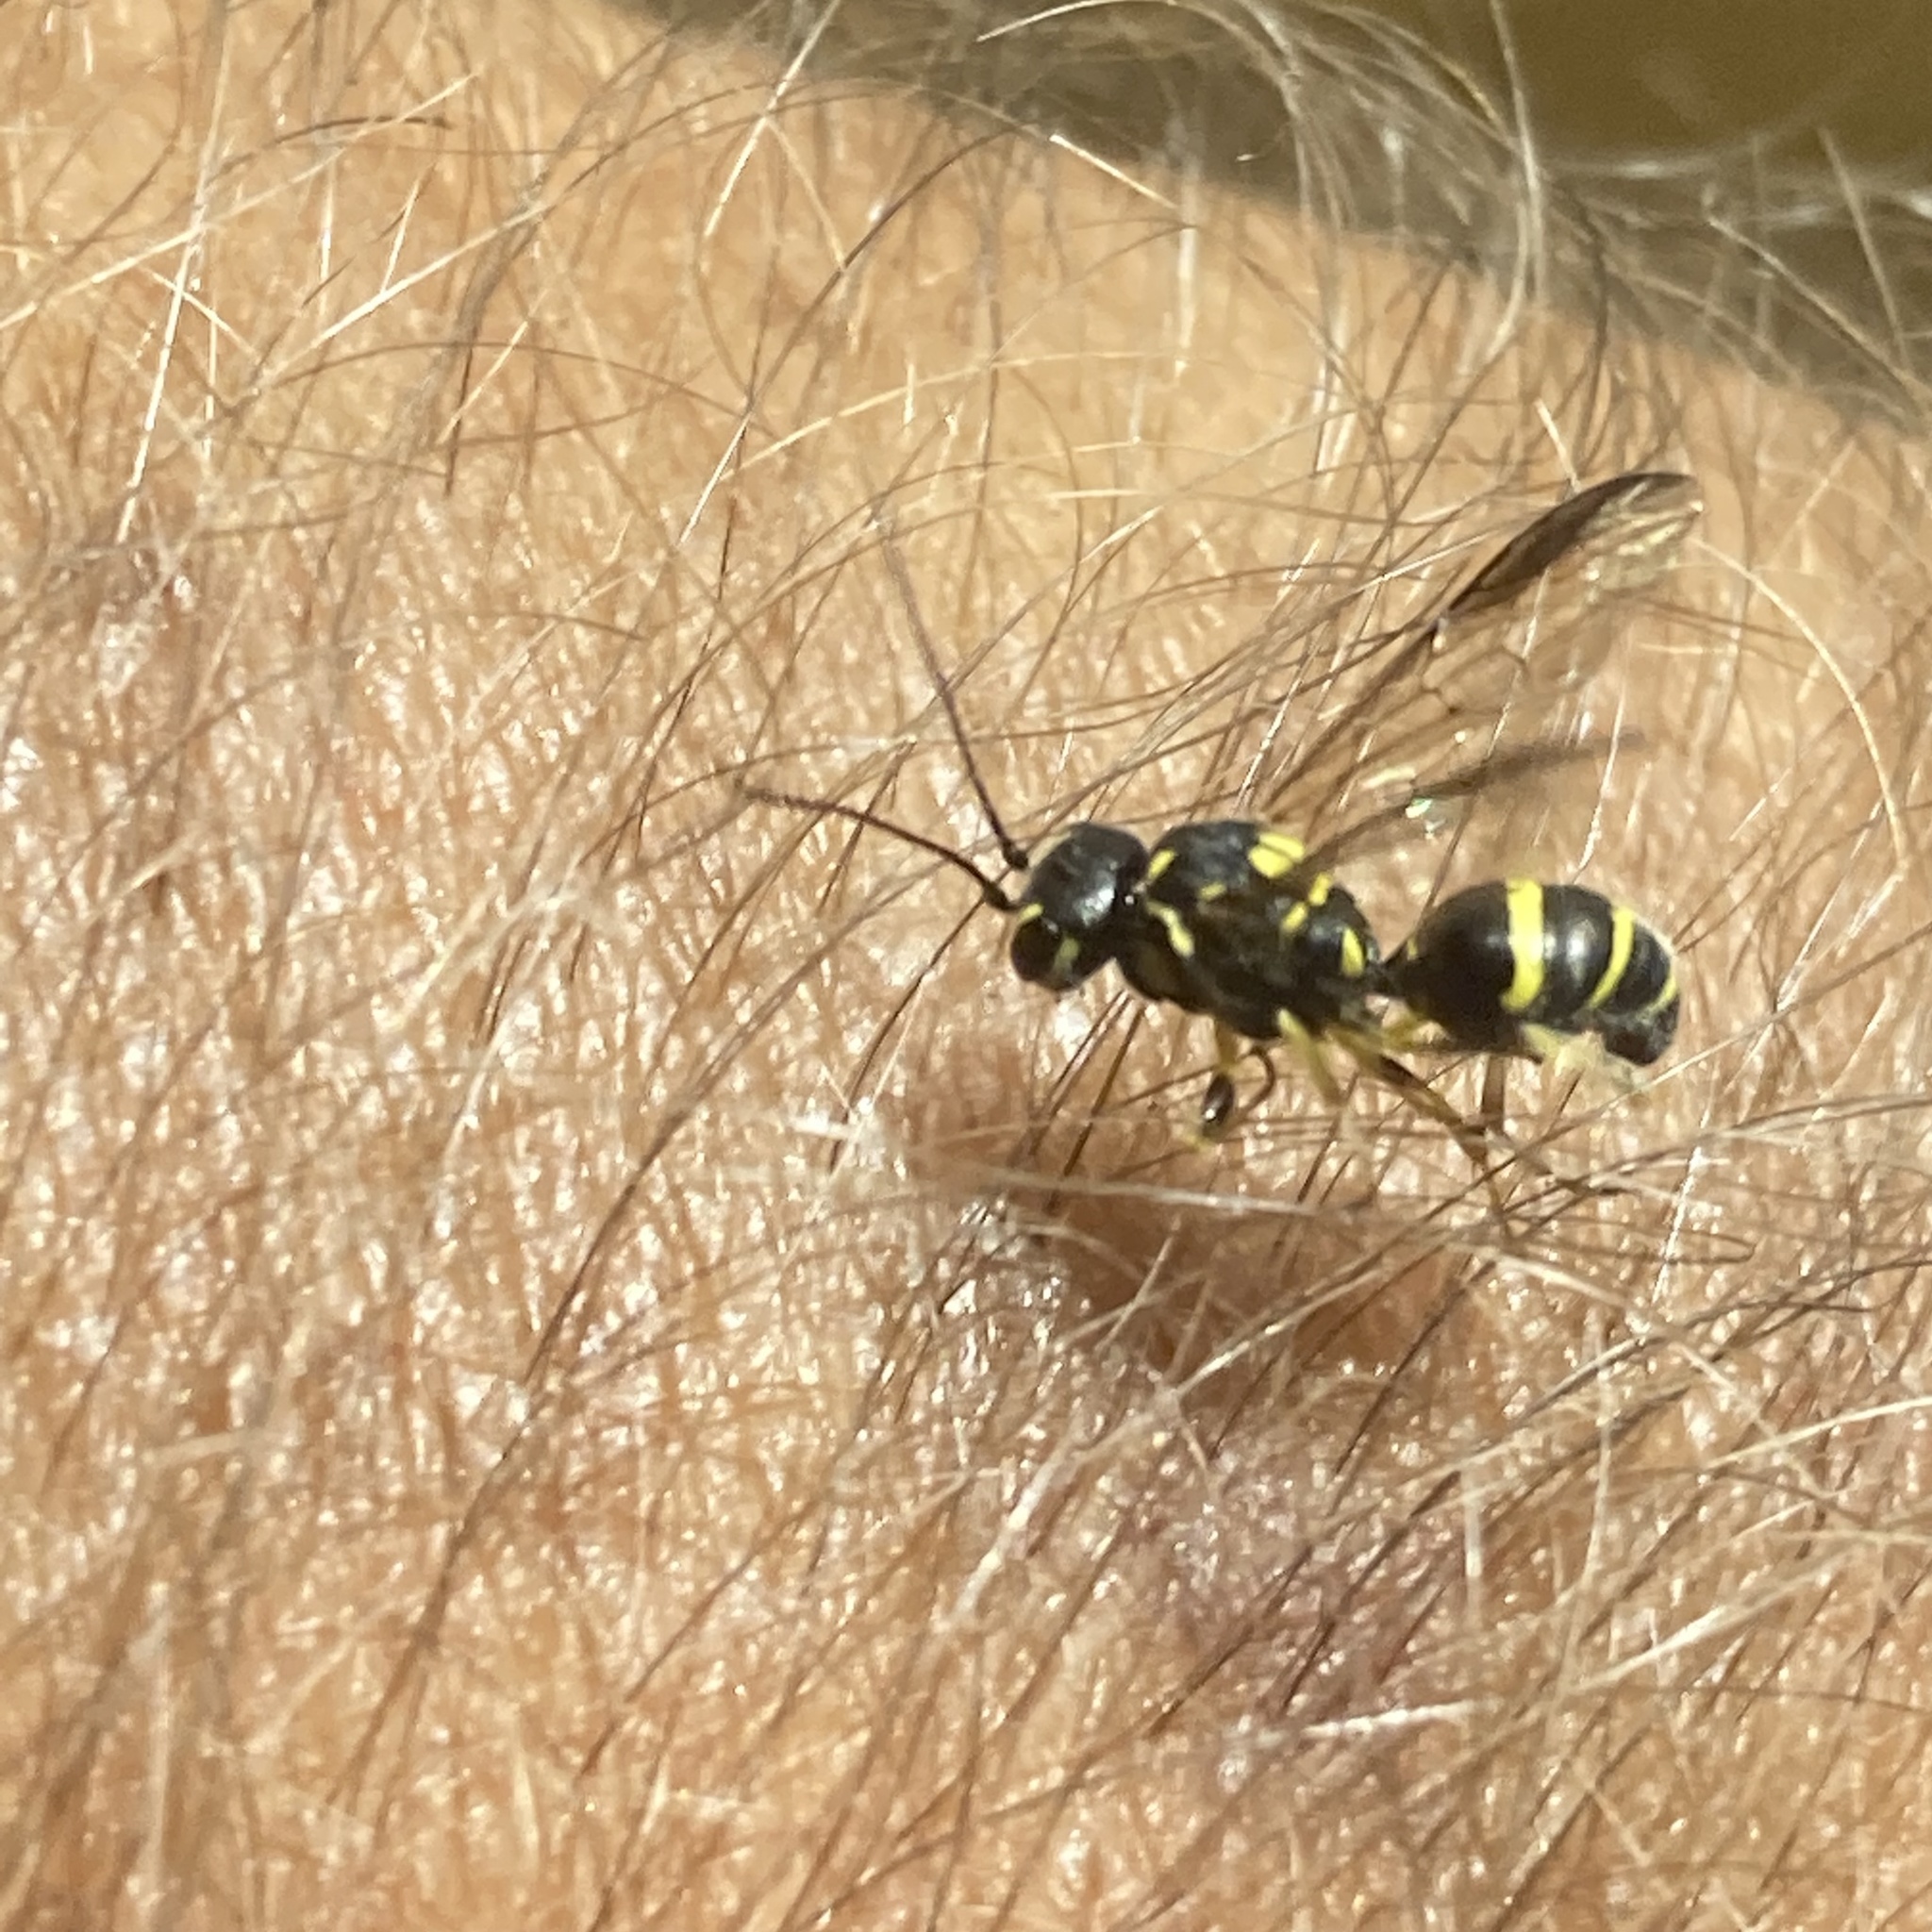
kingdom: Animalia
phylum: Arthropoda
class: Insecta
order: Hymenoptera
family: Trigonalidae
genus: Taeniogonalos
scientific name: Taeniogonalos gundlachii
